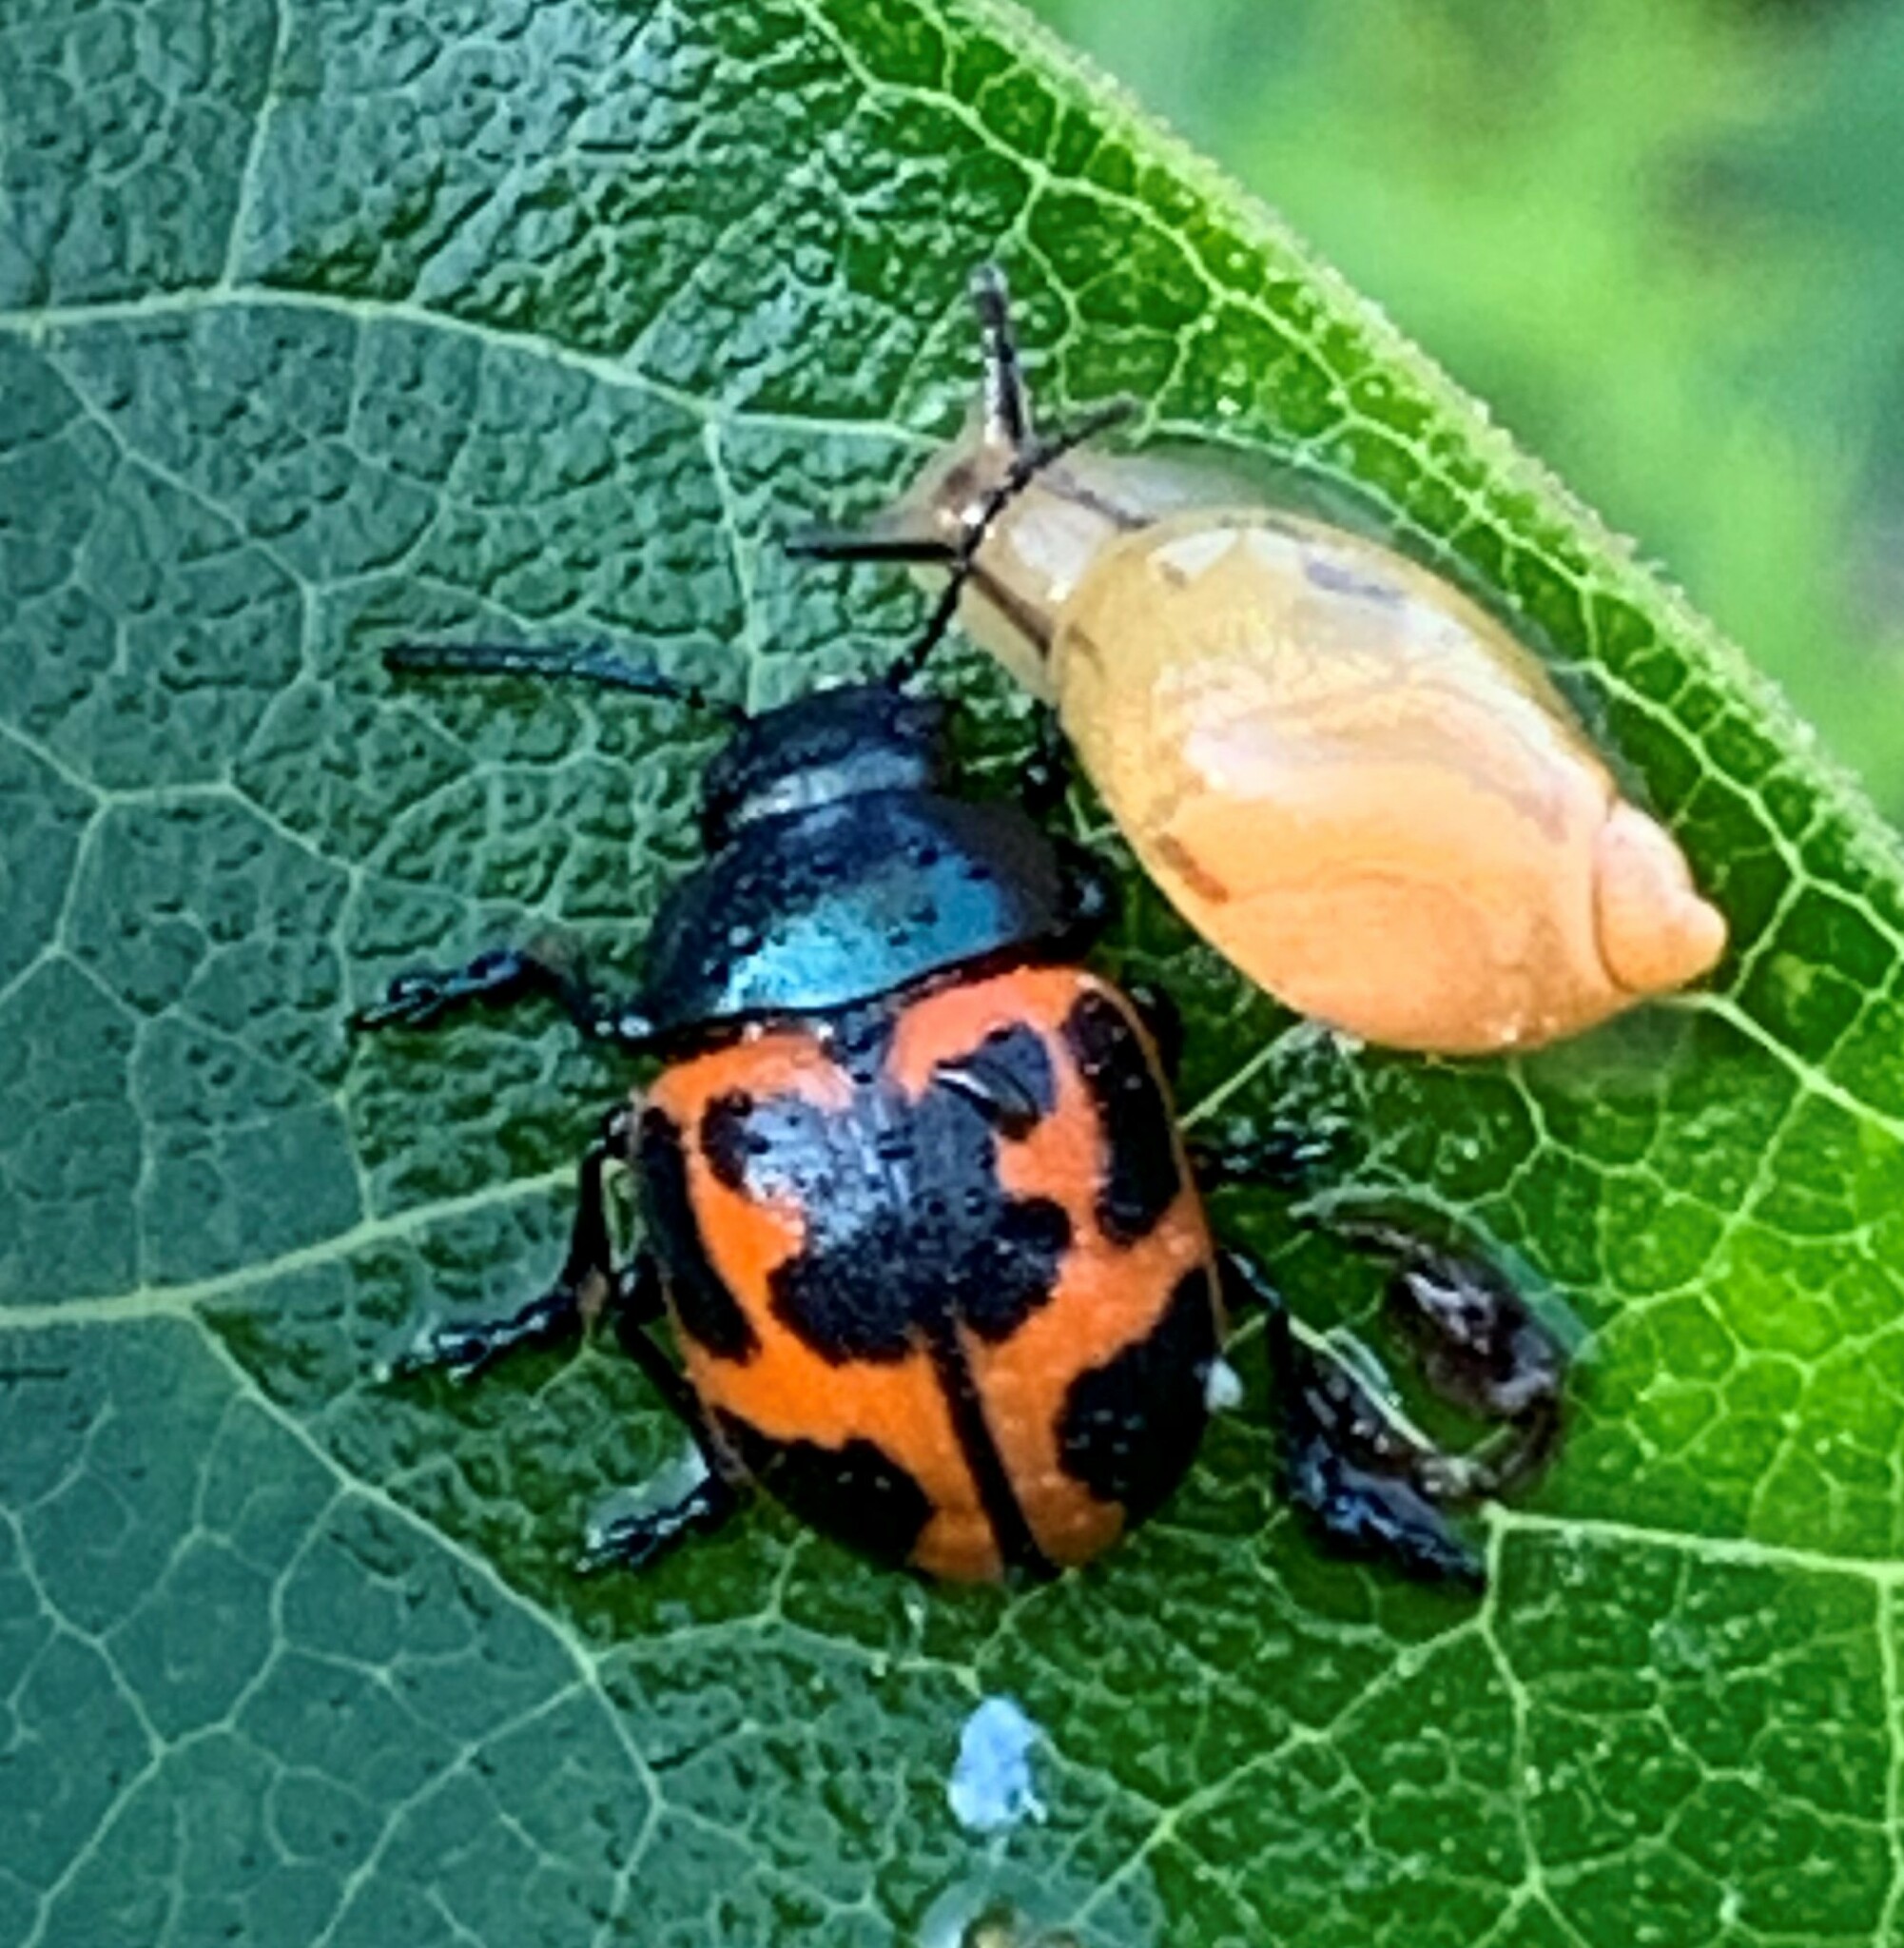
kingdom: Animalia
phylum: Arthropoda
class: Insecta
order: Coleoptera
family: Chrysomelidae
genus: Labidomera
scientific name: Labidomera clivicollis
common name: Swamp milkweed leaf beetle
